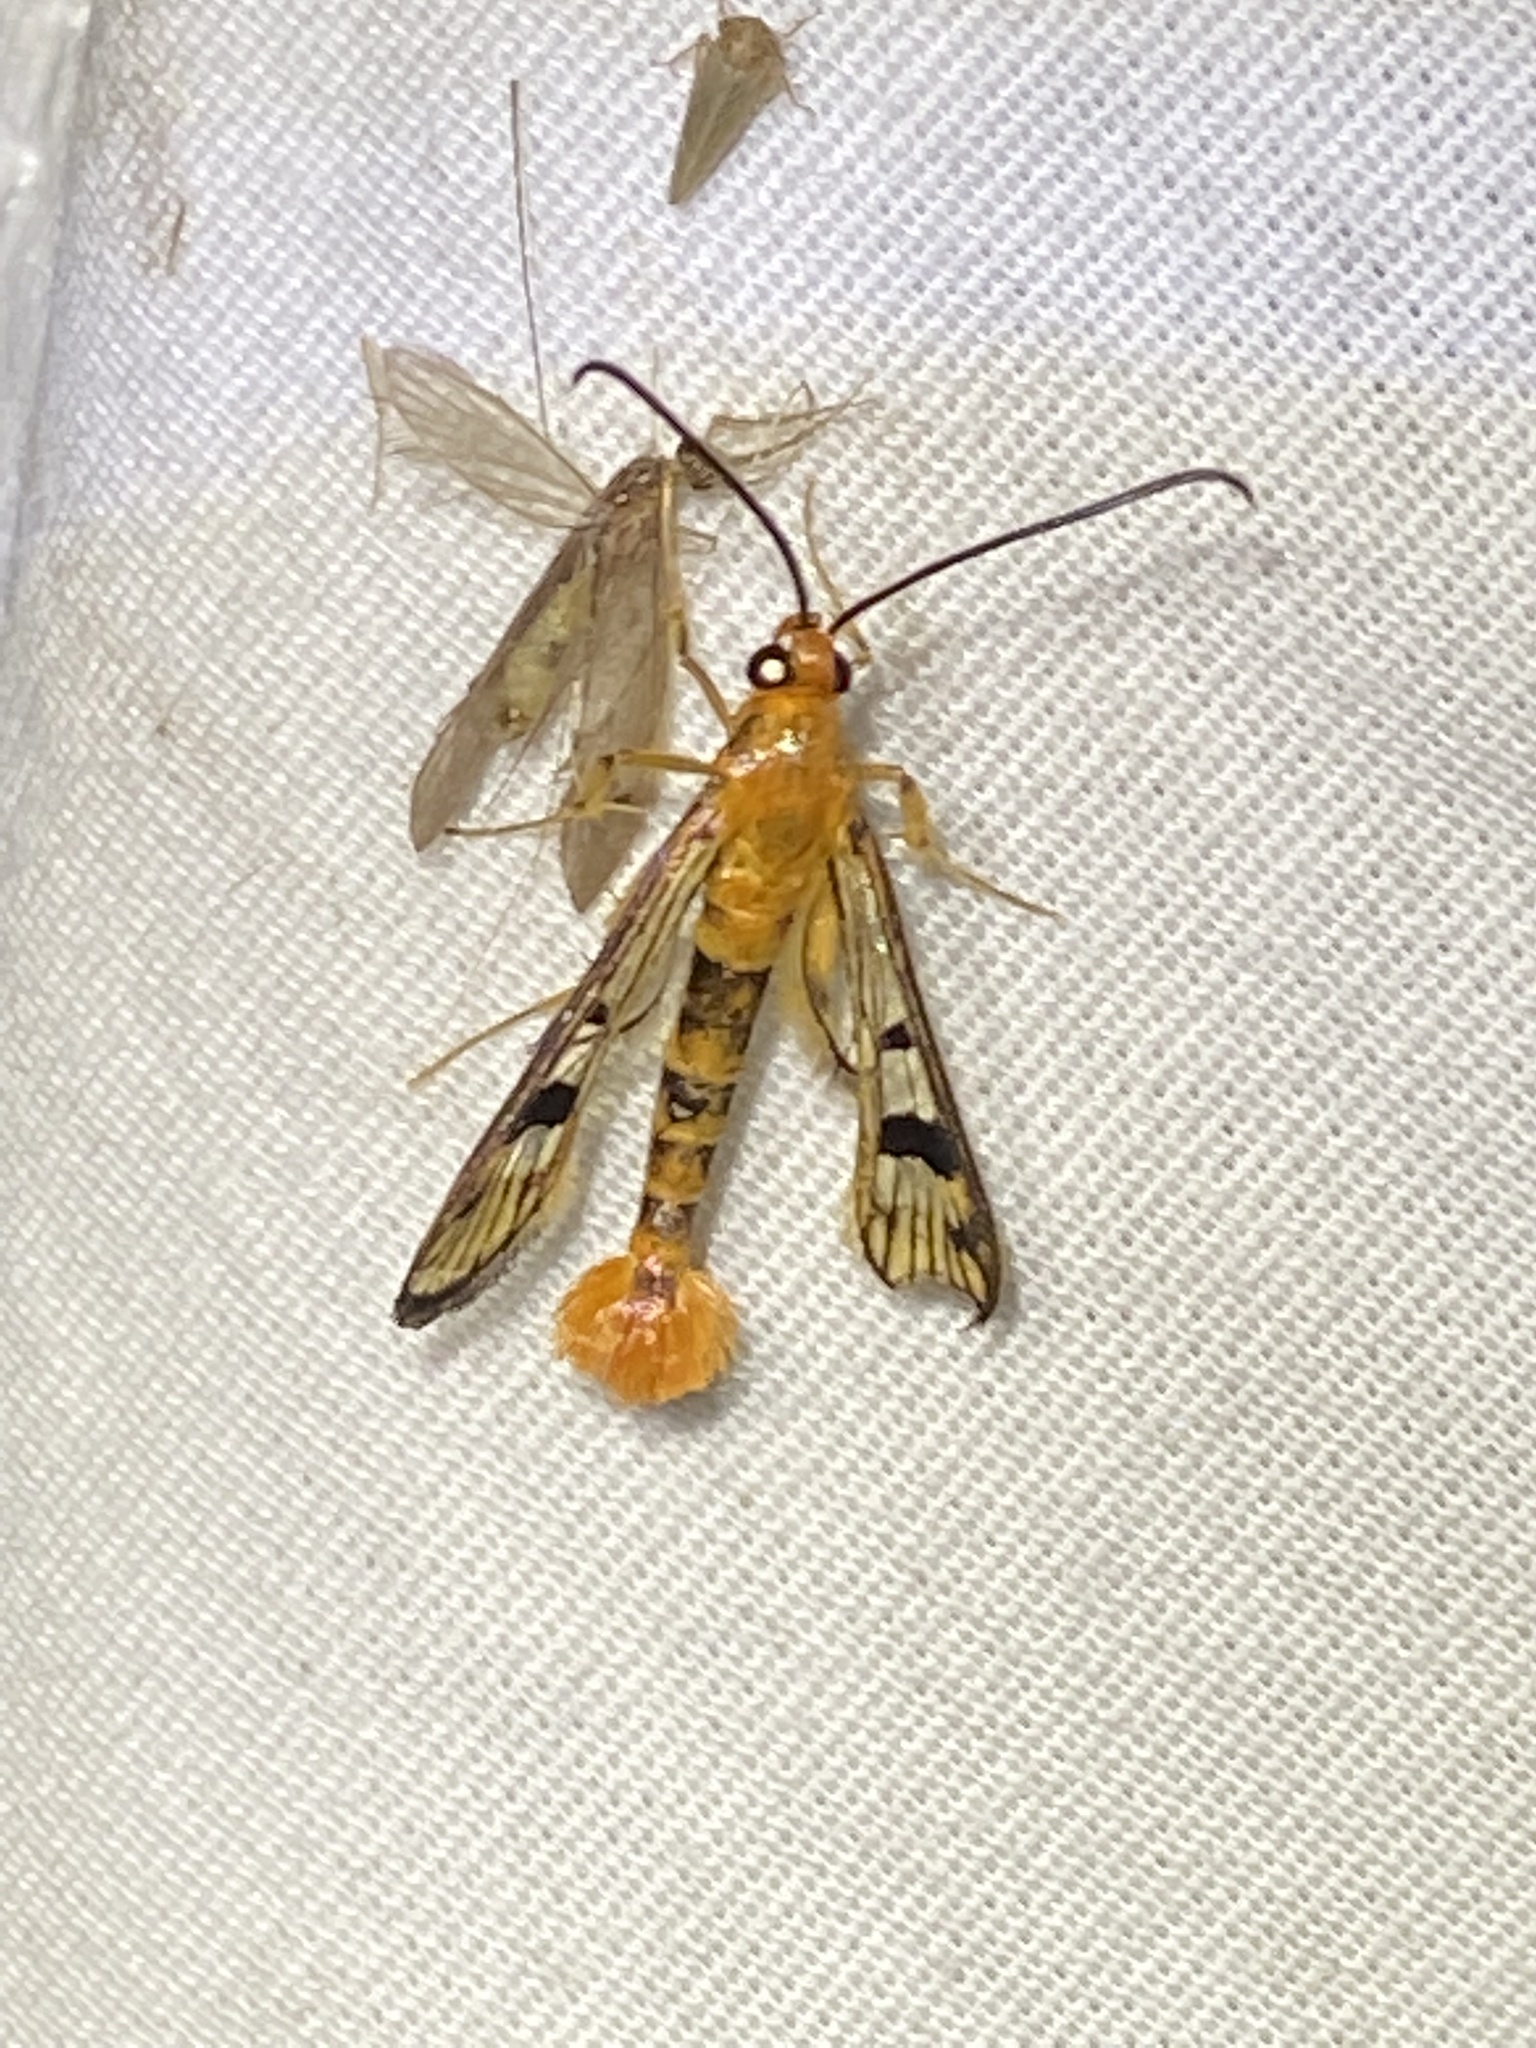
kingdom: Animalia
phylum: Arthropoda
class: Insecta
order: Lepidoptera
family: Sesiidae
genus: Synanthedon
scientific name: Synanthedon acerni
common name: Maple callus borer moth
